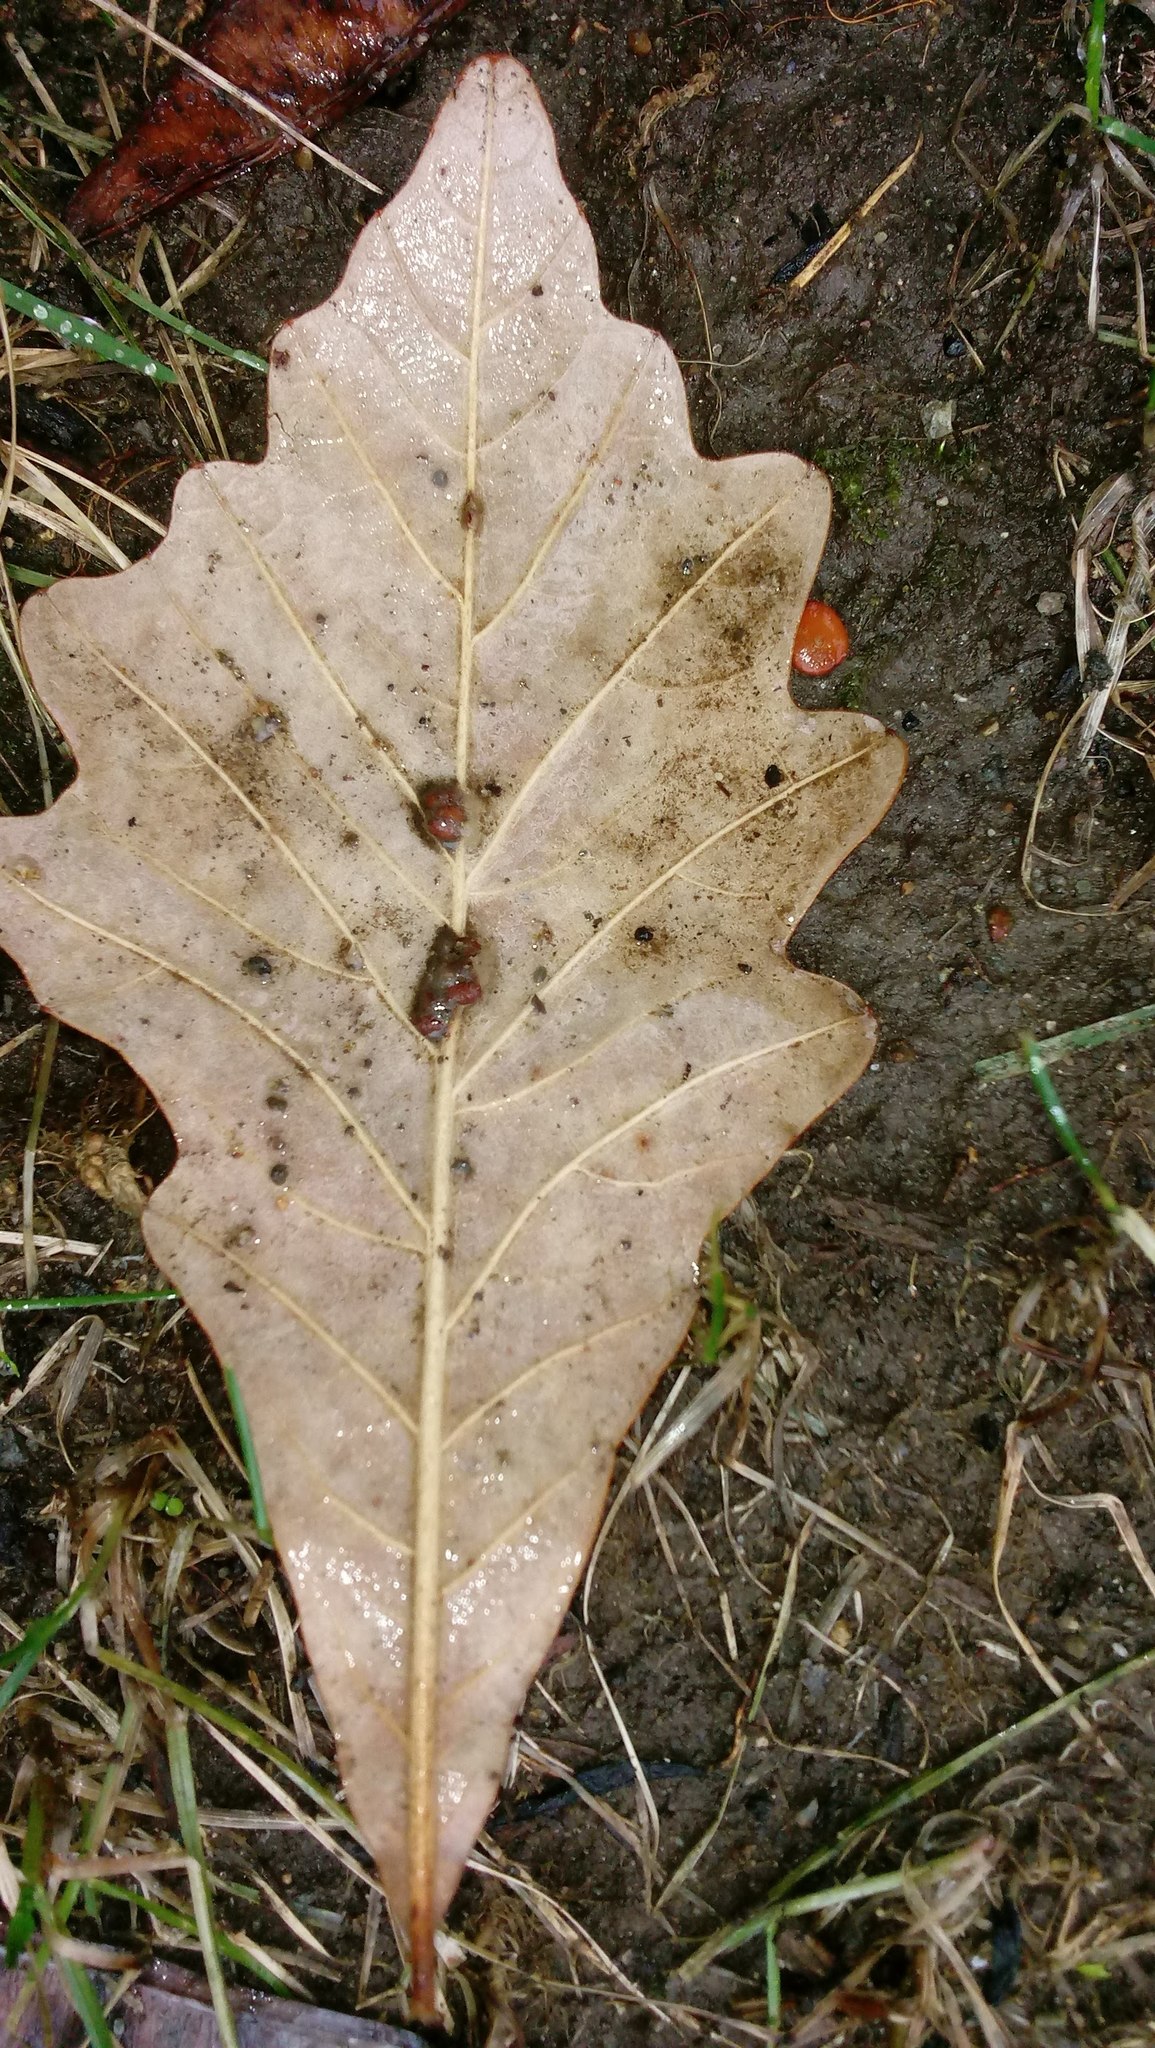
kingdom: Animalia
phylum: Arthropoda
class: Insecta
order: Hymenoptera
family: Cynipidae
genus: Andricus
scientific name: Andricus Druon ignotum
